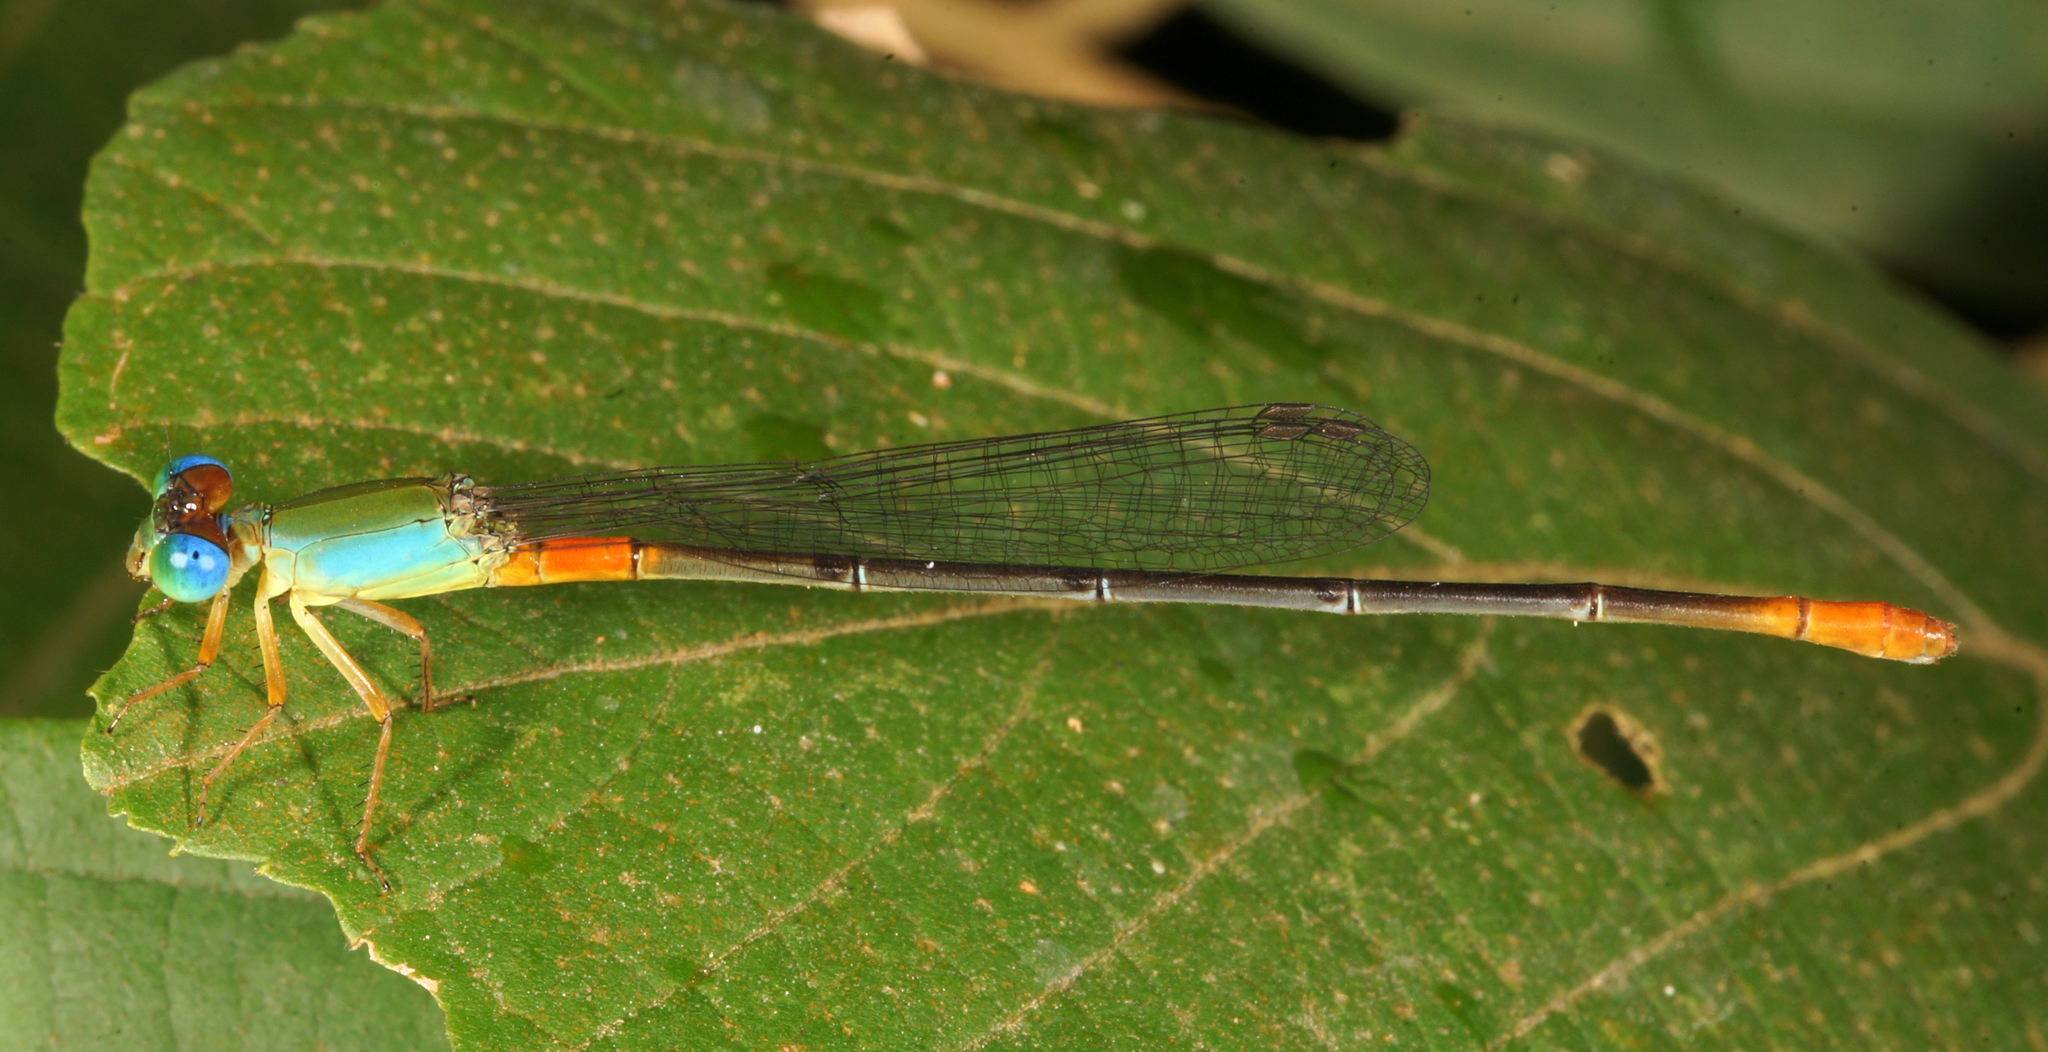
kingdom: Animalia
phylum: Arthropoda
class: Insecta
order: Odonata
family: Coenagrionidae
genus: Ceriagrion
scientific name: Ceriagrion cerinorubellum
